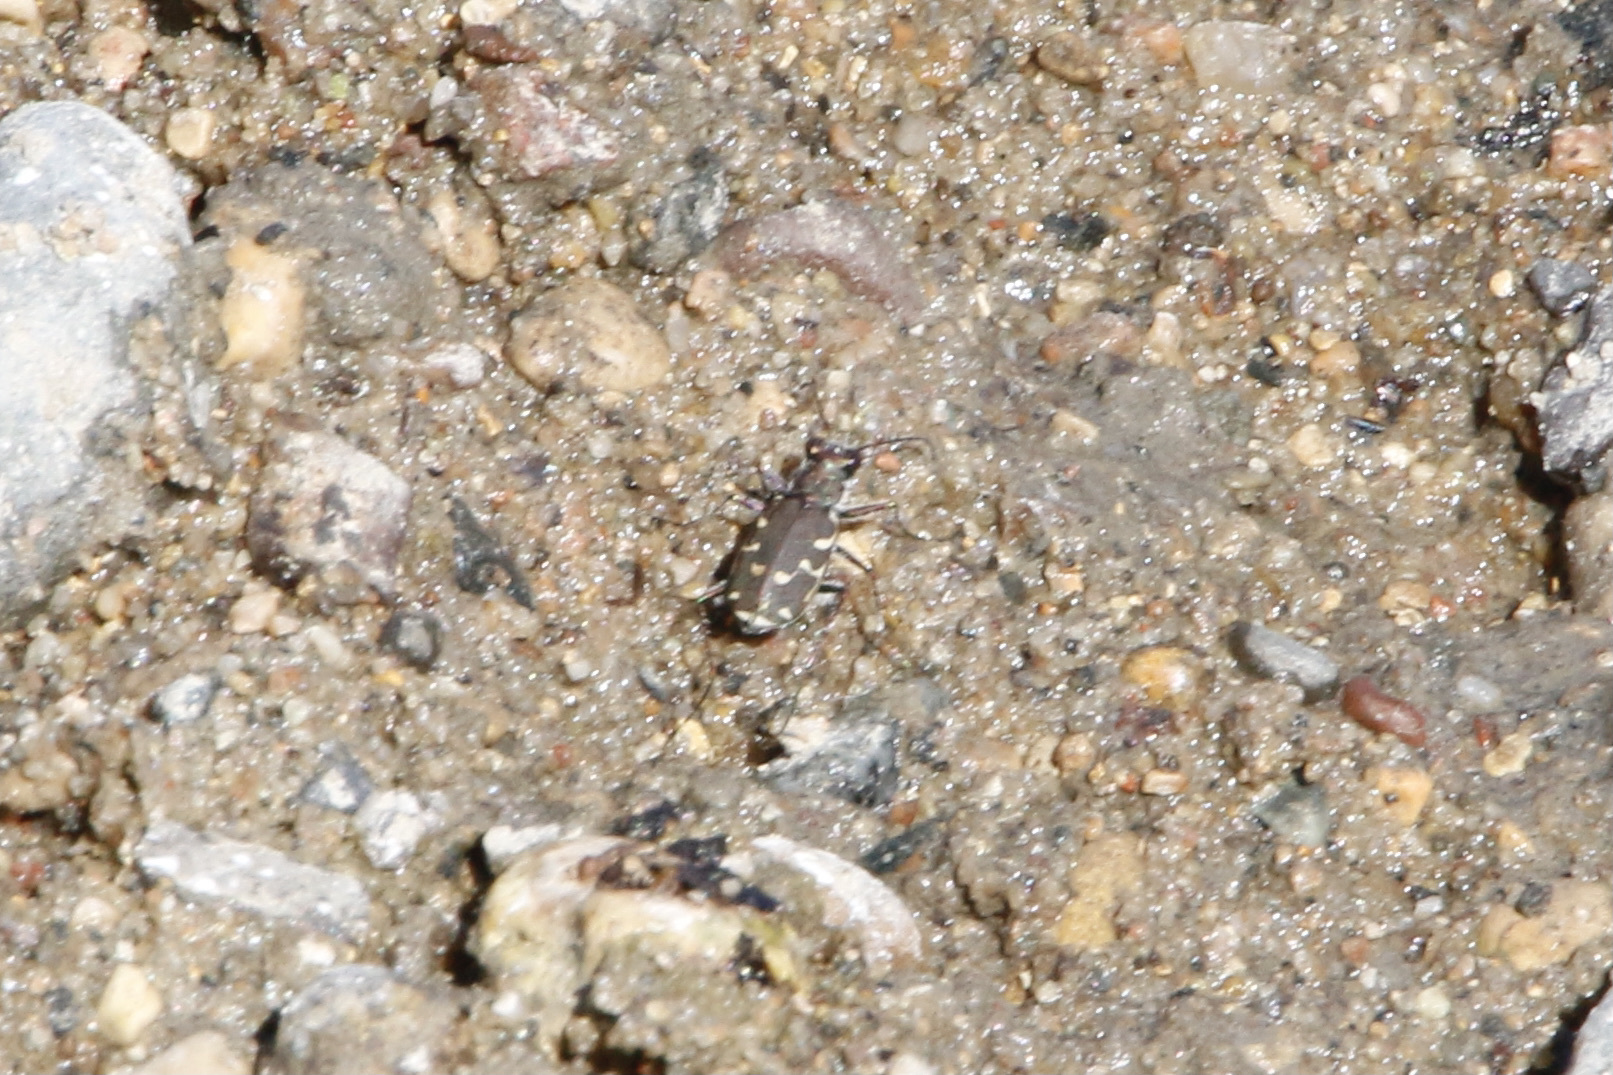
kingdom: Animalia
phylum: Arthropoda
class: Insecta
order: Coleoptera
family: Carabidae
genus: Cicindela
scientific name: Cicindela duodecimguttata
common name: Twelve-spotted tiger beetle
